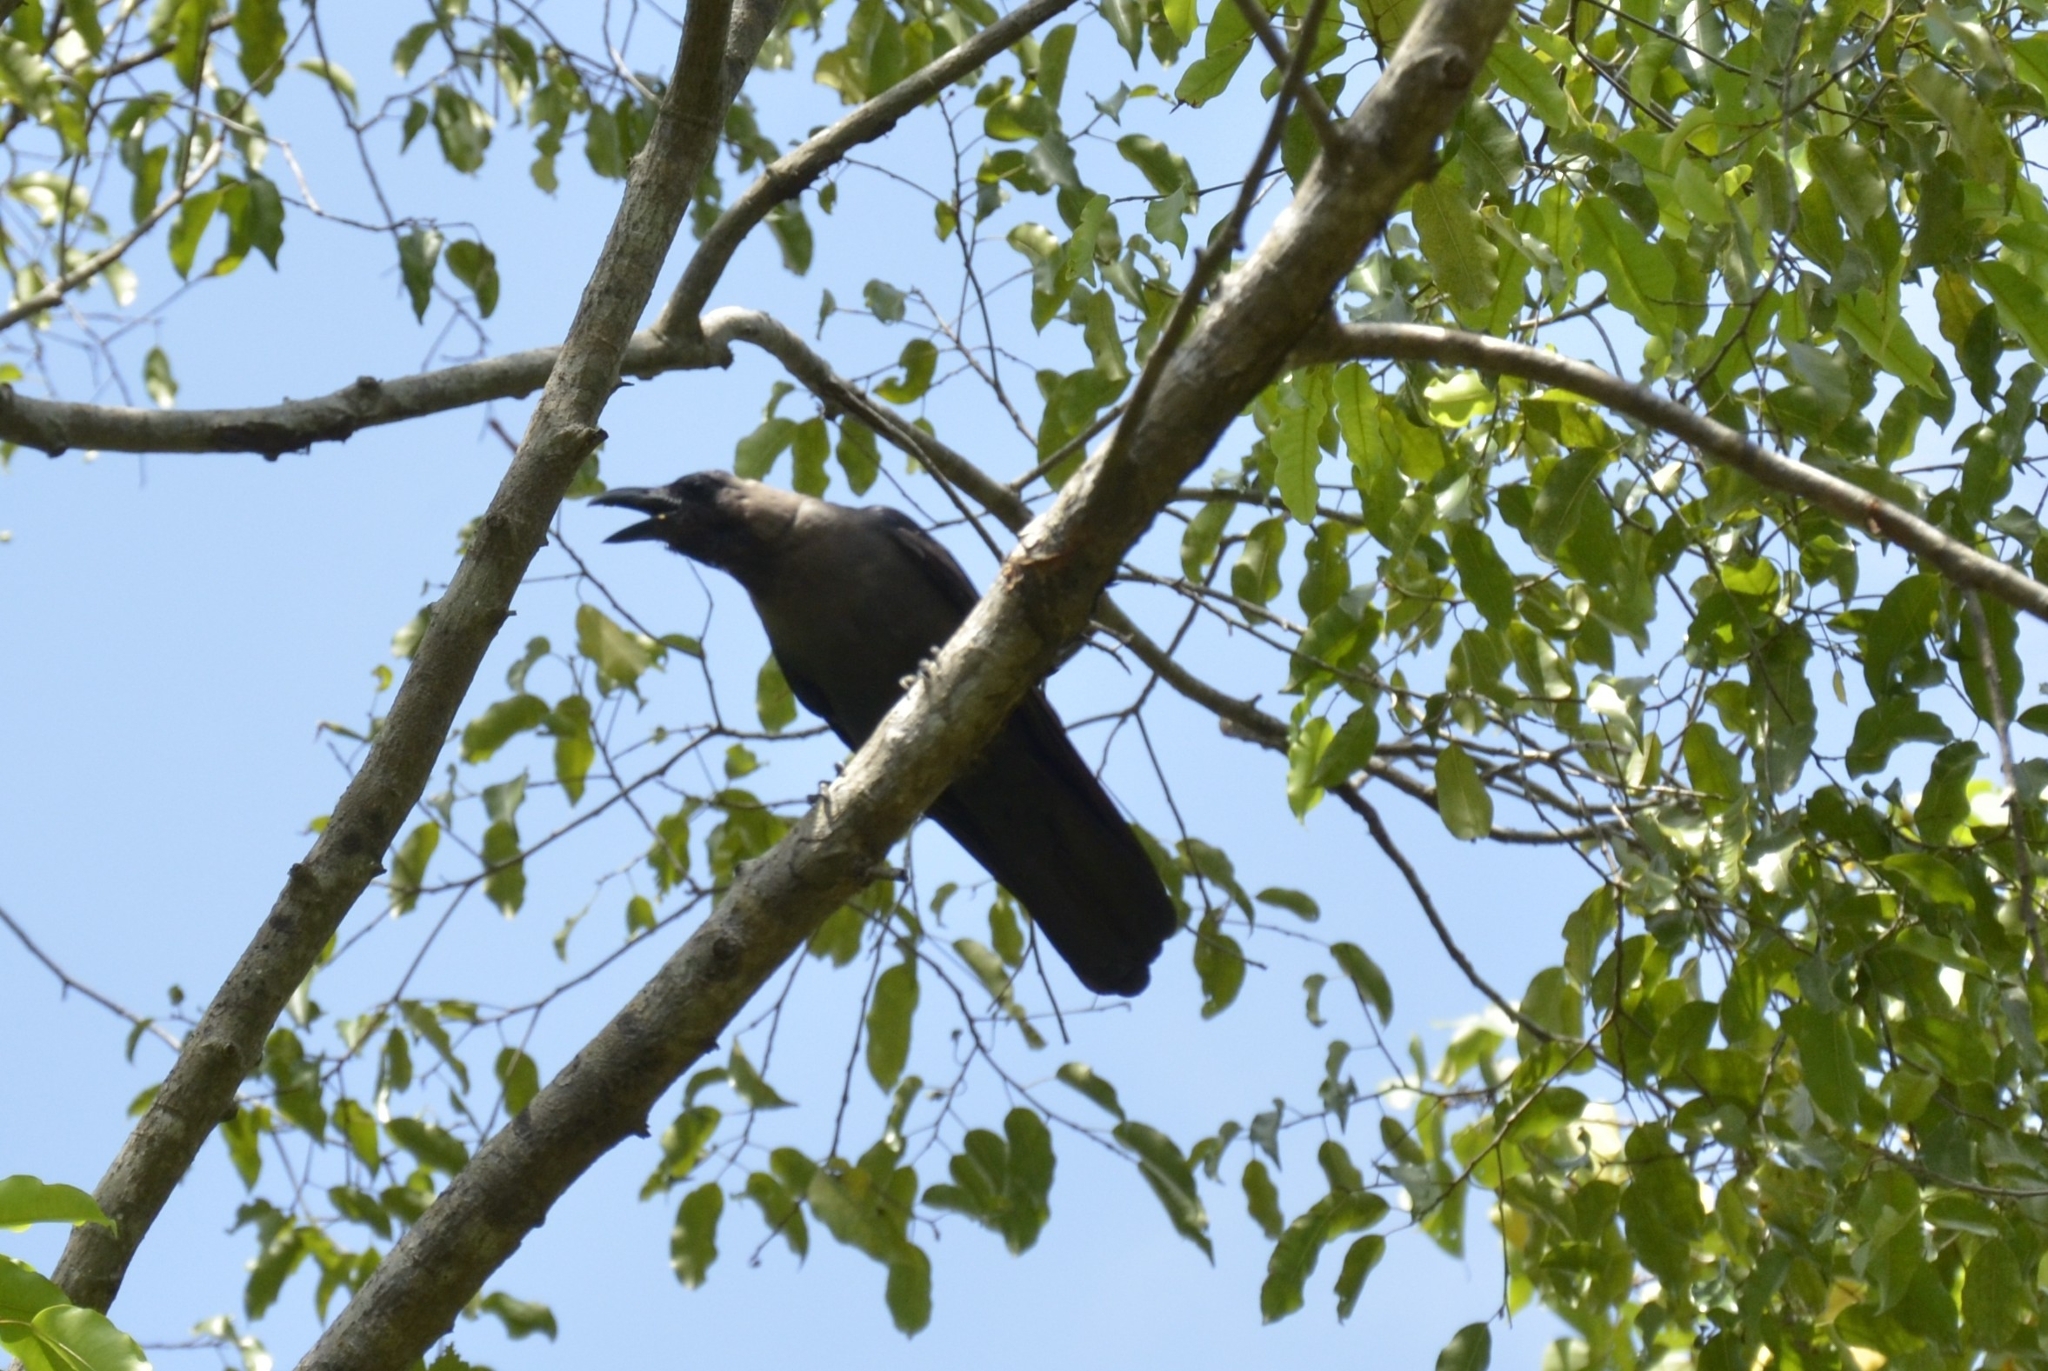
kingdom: Animalia
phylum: Chordata
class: Aves
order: Passeriformes
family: Corvidae
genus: Corvus
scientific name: Corvus splendens
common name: House crow
